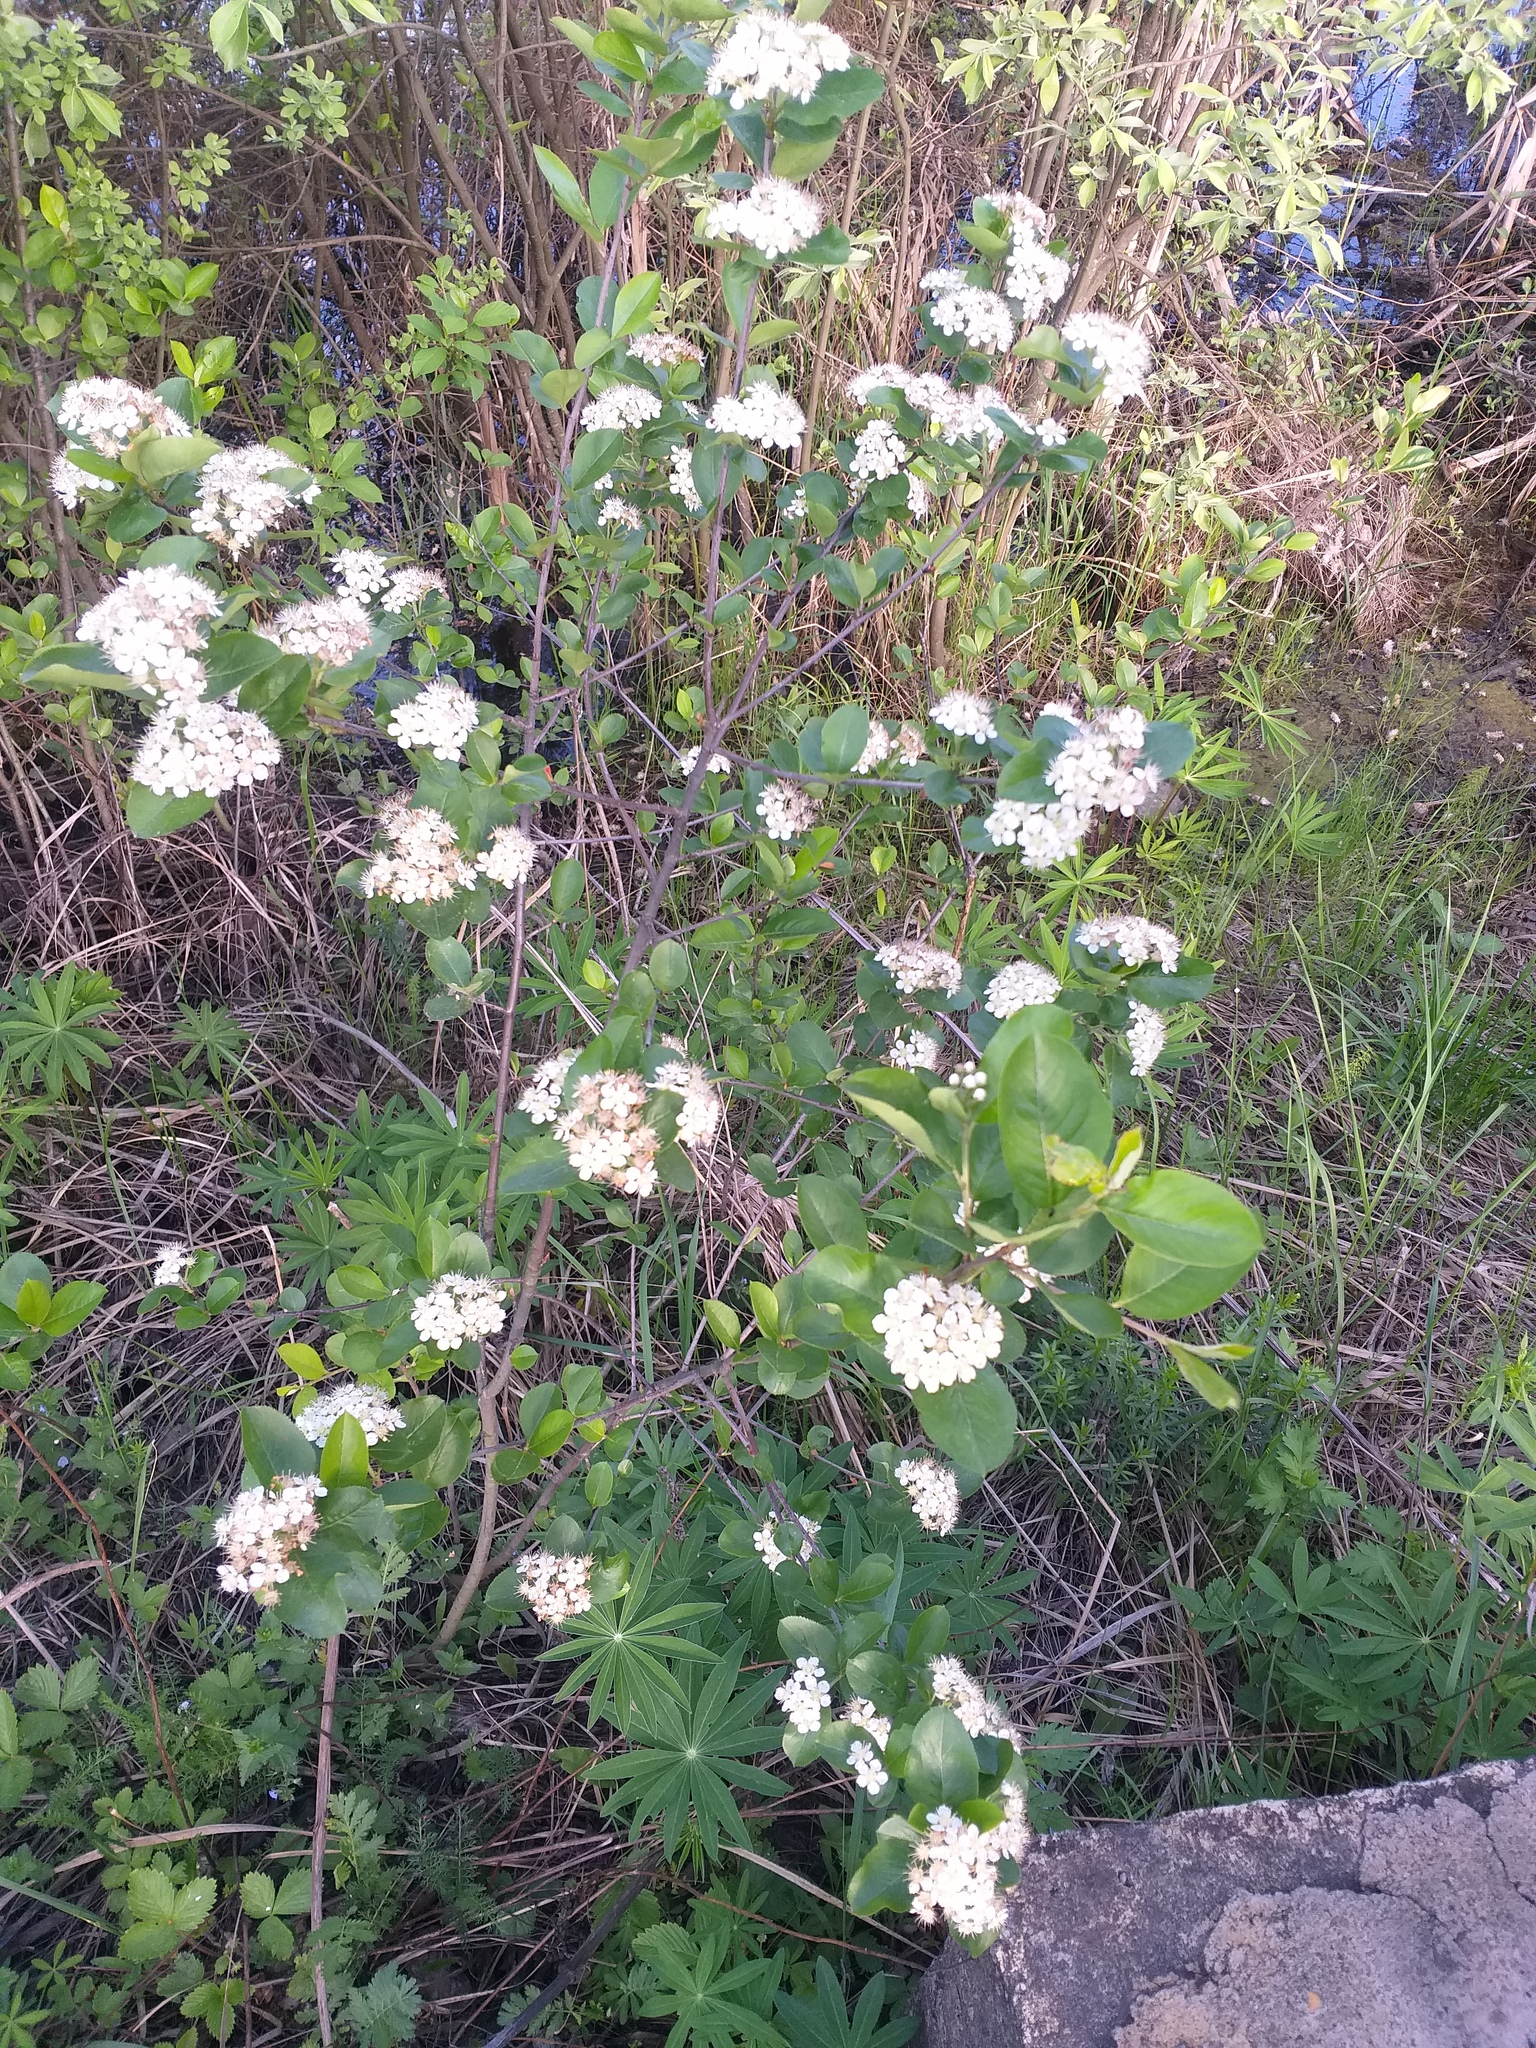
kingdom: Plantae
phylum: Tracheophyta
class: Magnoliopsida
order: Rosales
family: Rosaceae
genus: Sorbaronia
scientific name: Sorbaronia arsenii
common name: Arsène's mountain-ash
